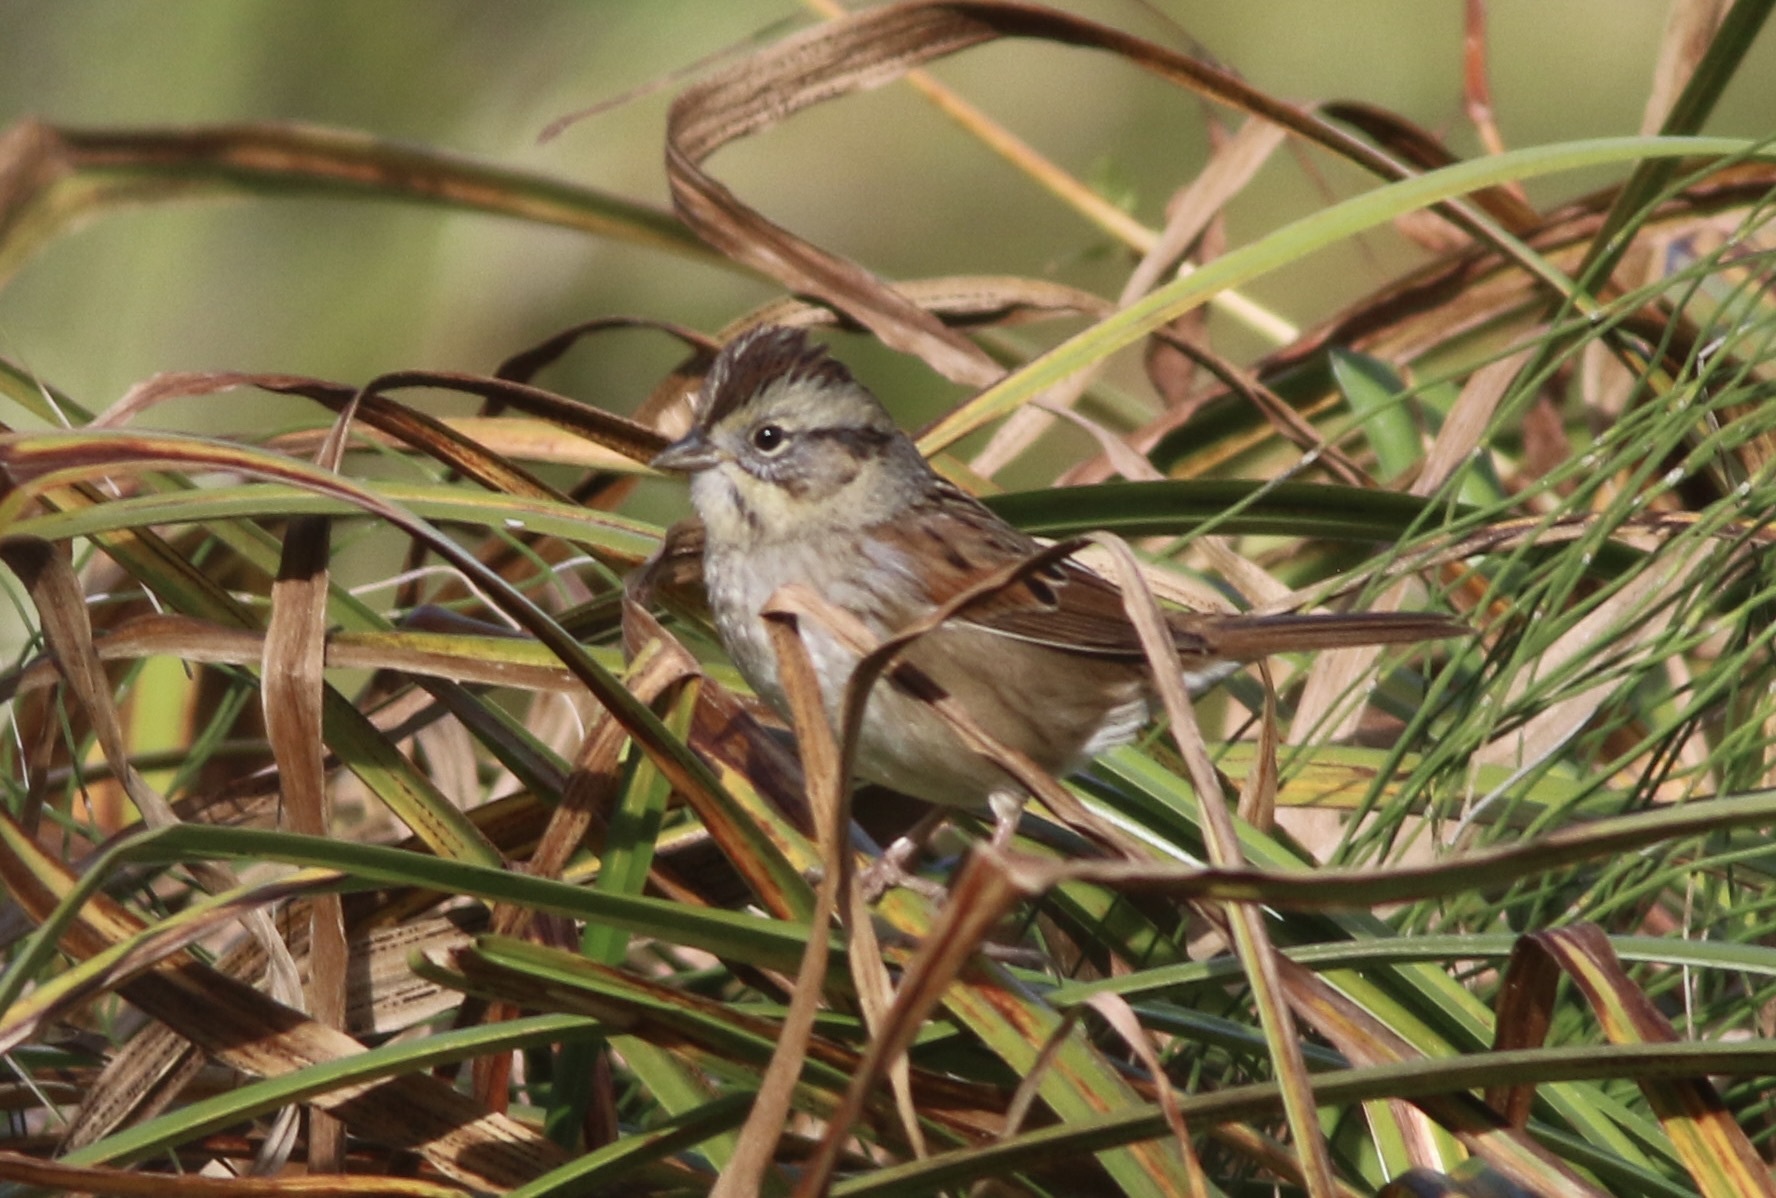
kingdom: Animalia
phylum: Chordata
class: Aves
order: Passeriformes
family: Passerellidae
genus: Melospiza
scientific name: Melospiza georgiana
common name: Swamp sparrow
